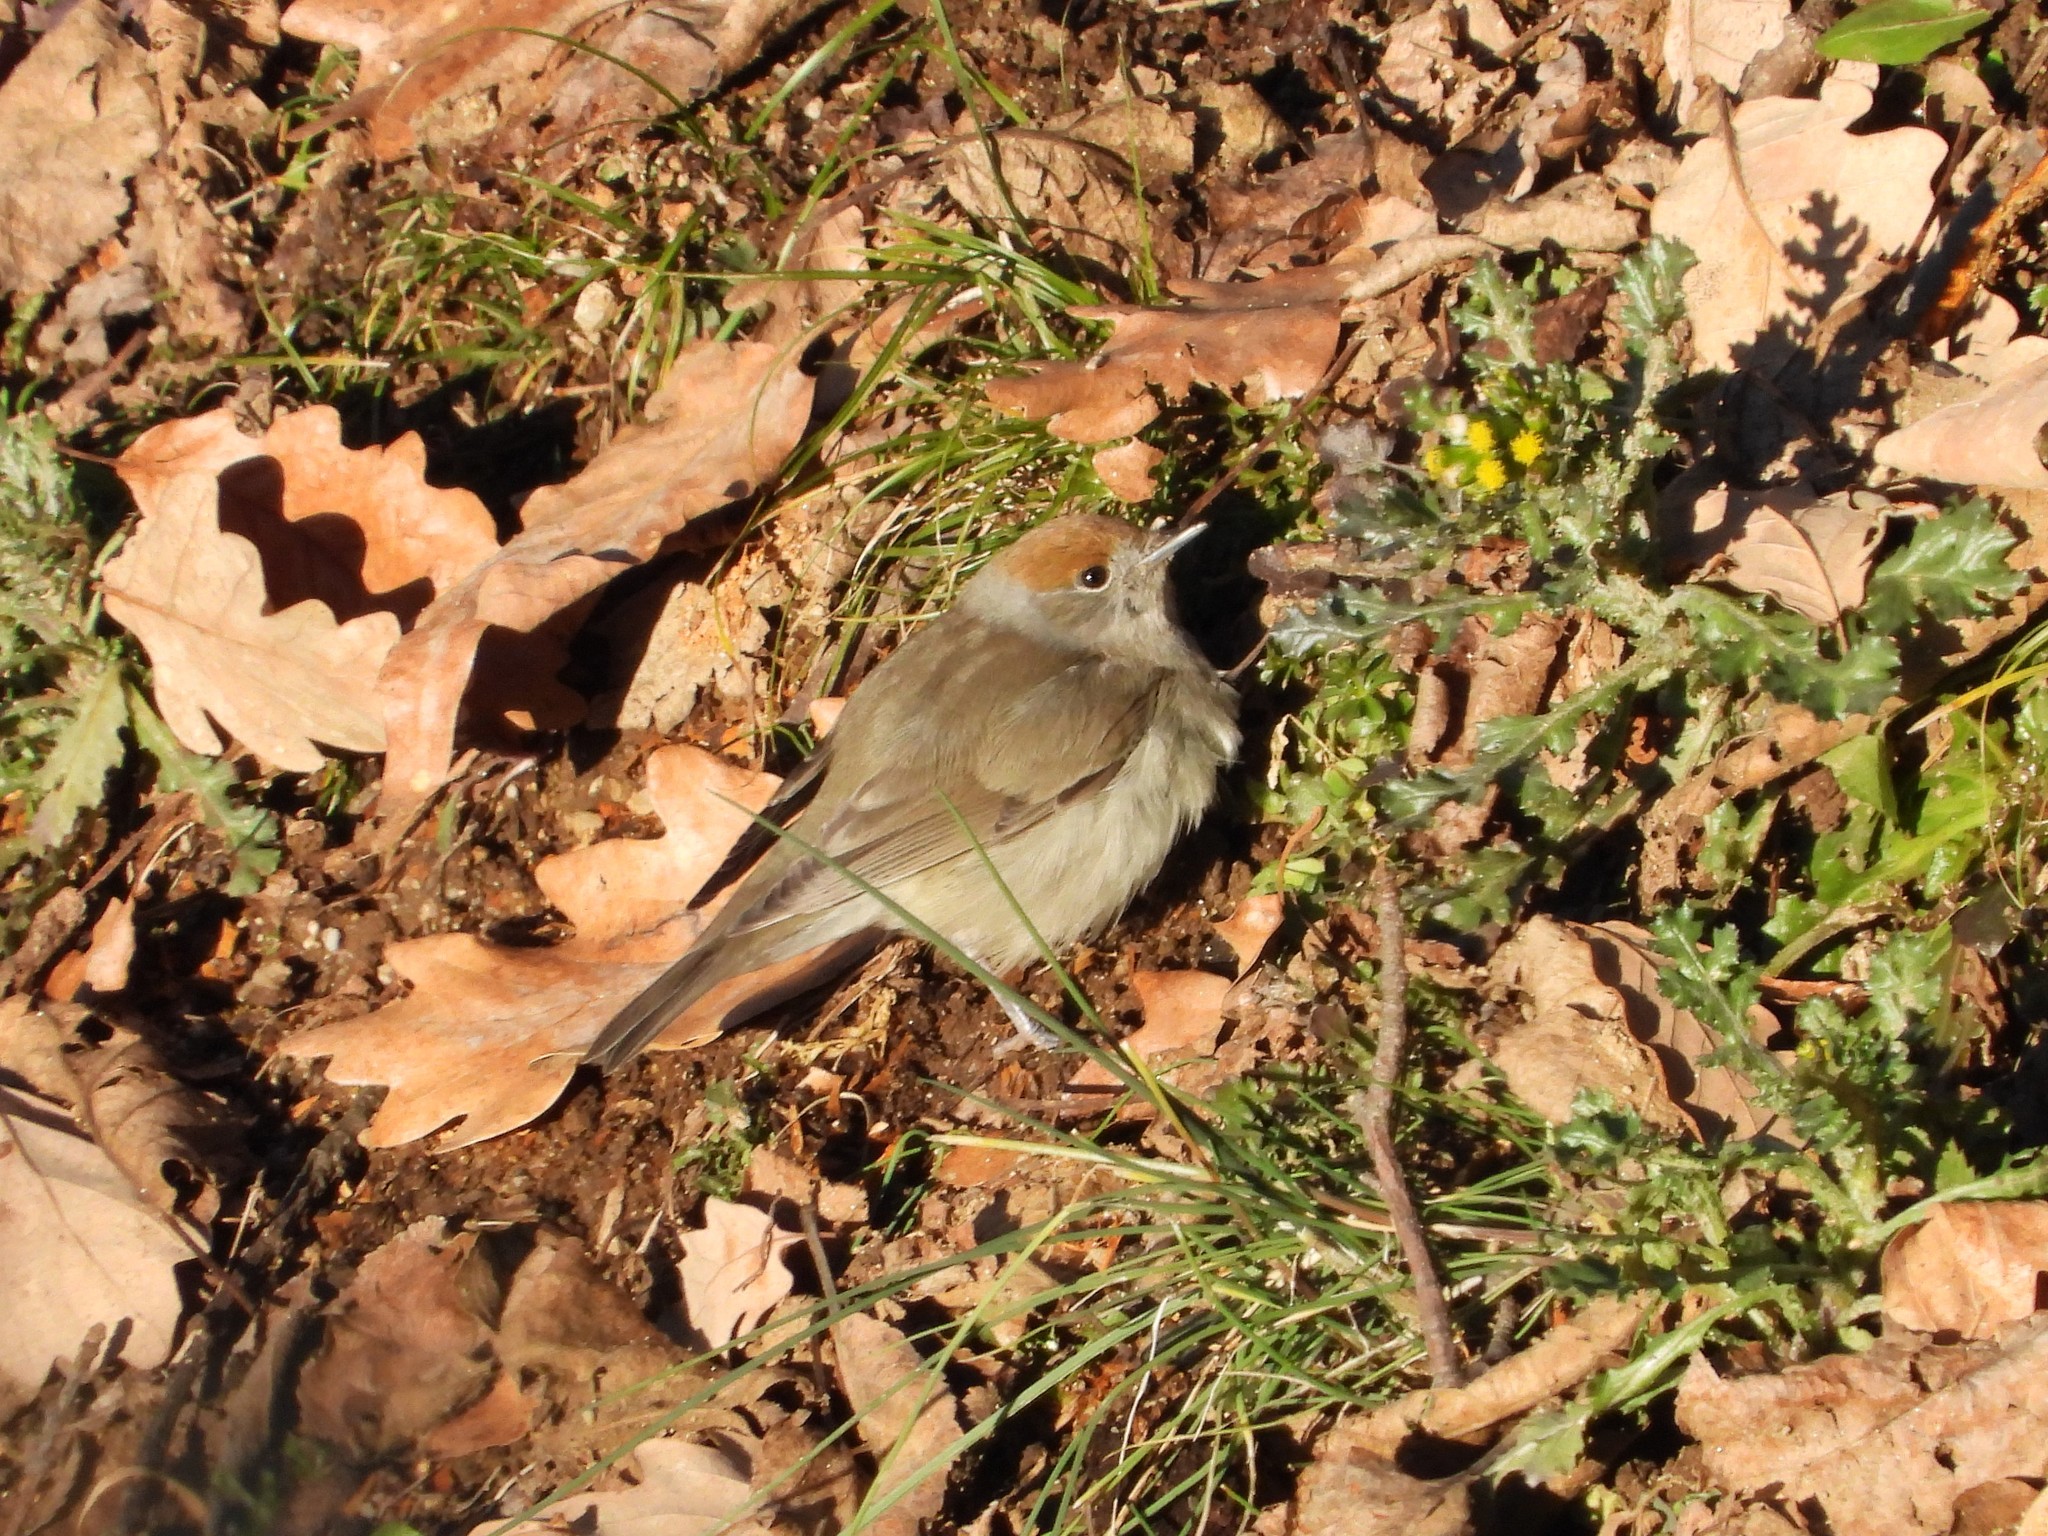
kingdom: Animalia
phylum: Chordata
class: Aves
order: Passeriformes
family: Sylviidae
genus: Sylvia
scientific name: Sylvia atricapilla
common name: Eurasian blackcap
